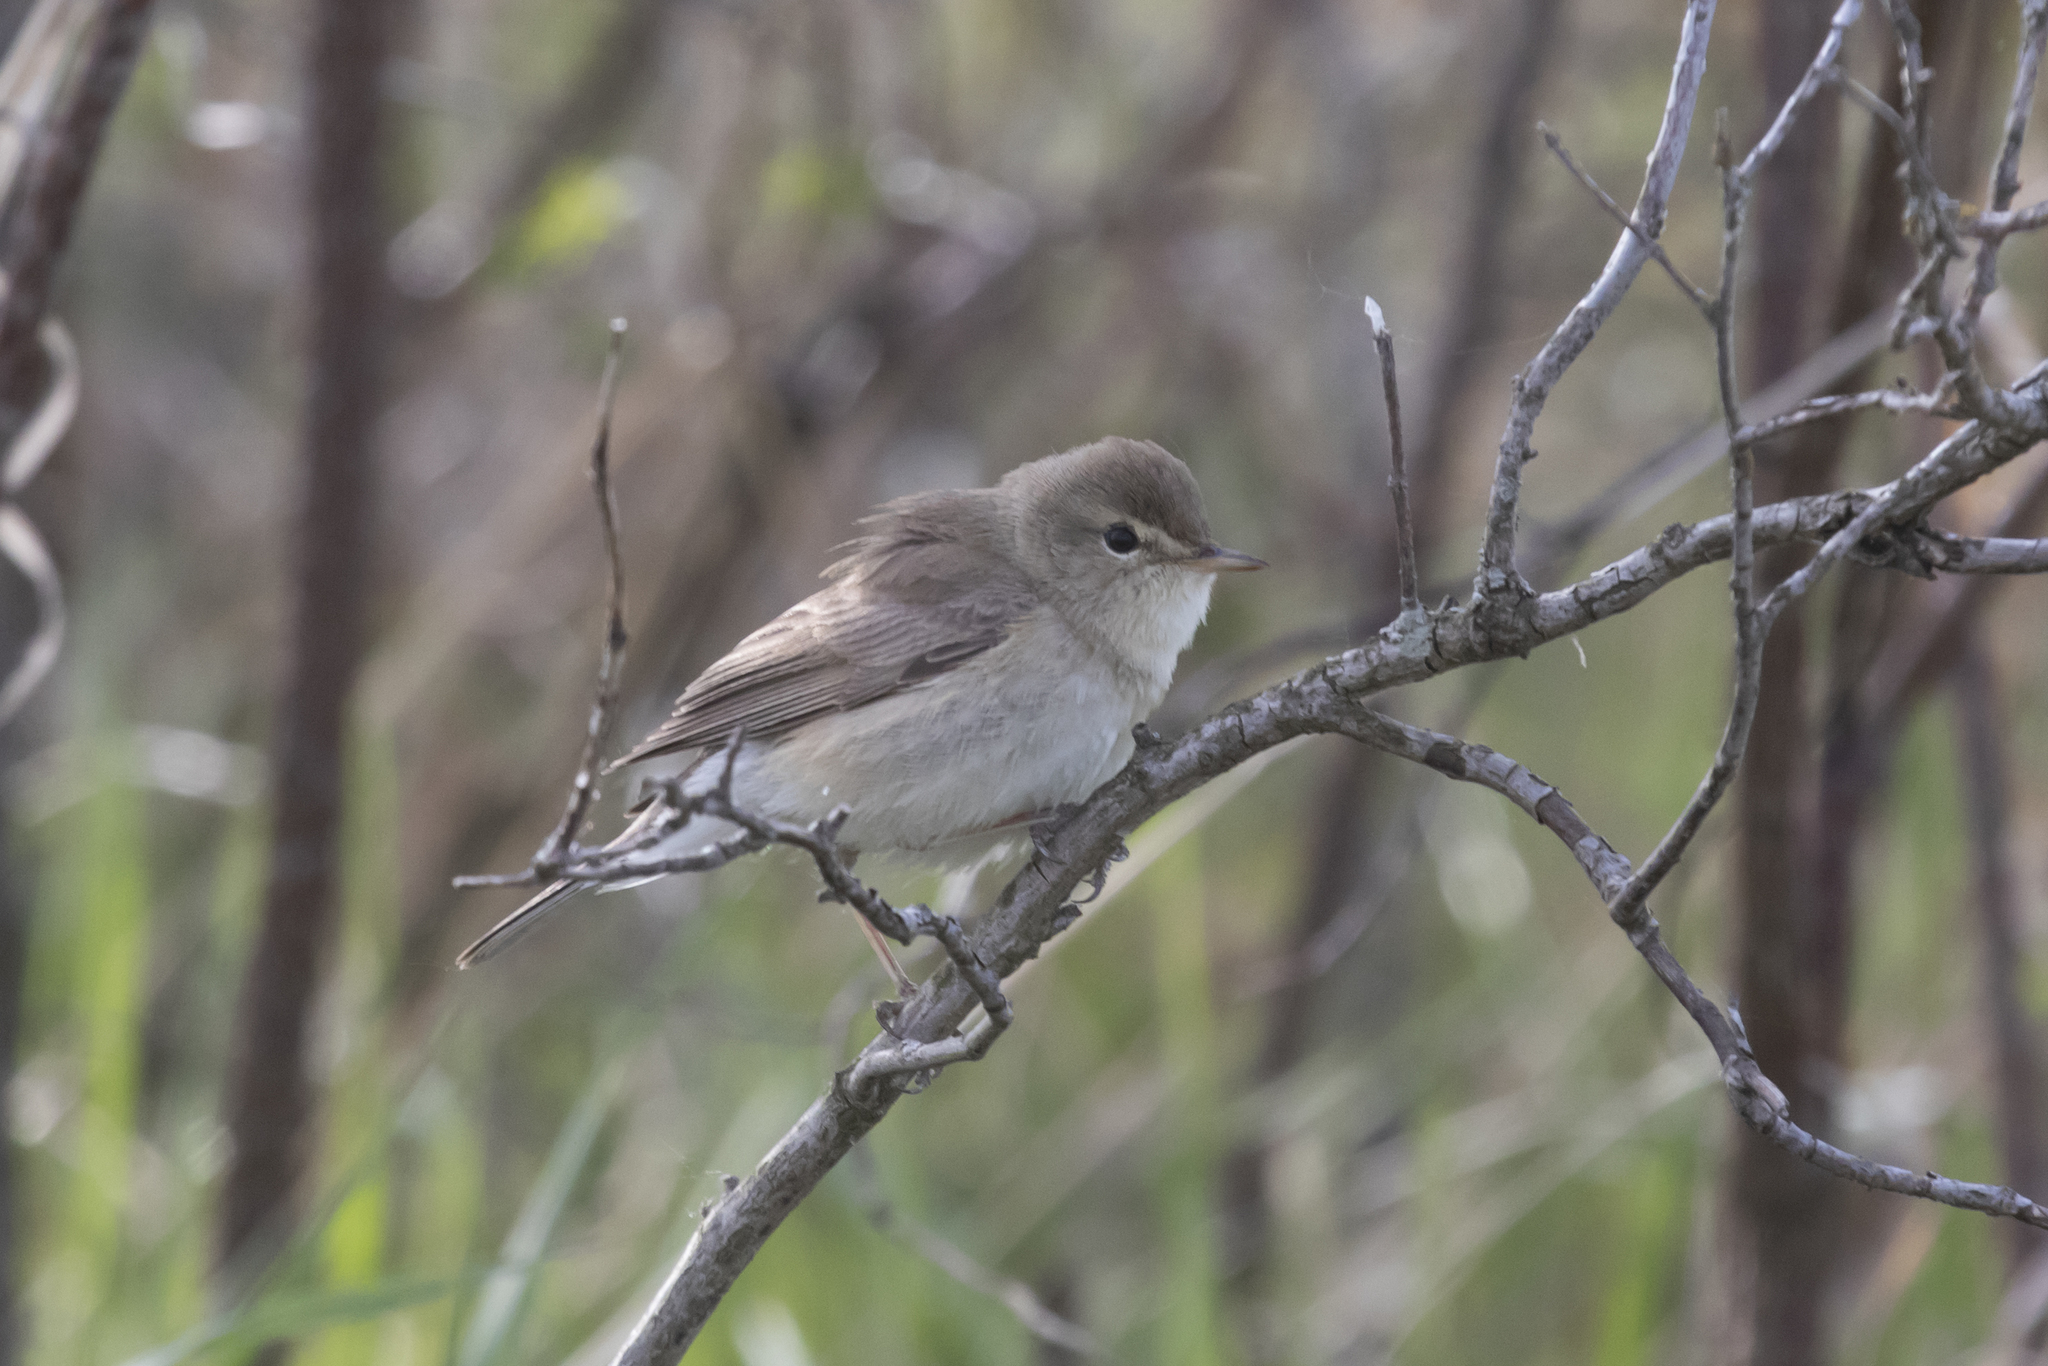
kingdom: Animalia
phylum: Chordata
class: Aves
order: Passeriformes
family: Acrocephalidae
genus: Iduna
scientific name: Iduna caligata
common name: Booted warbler
